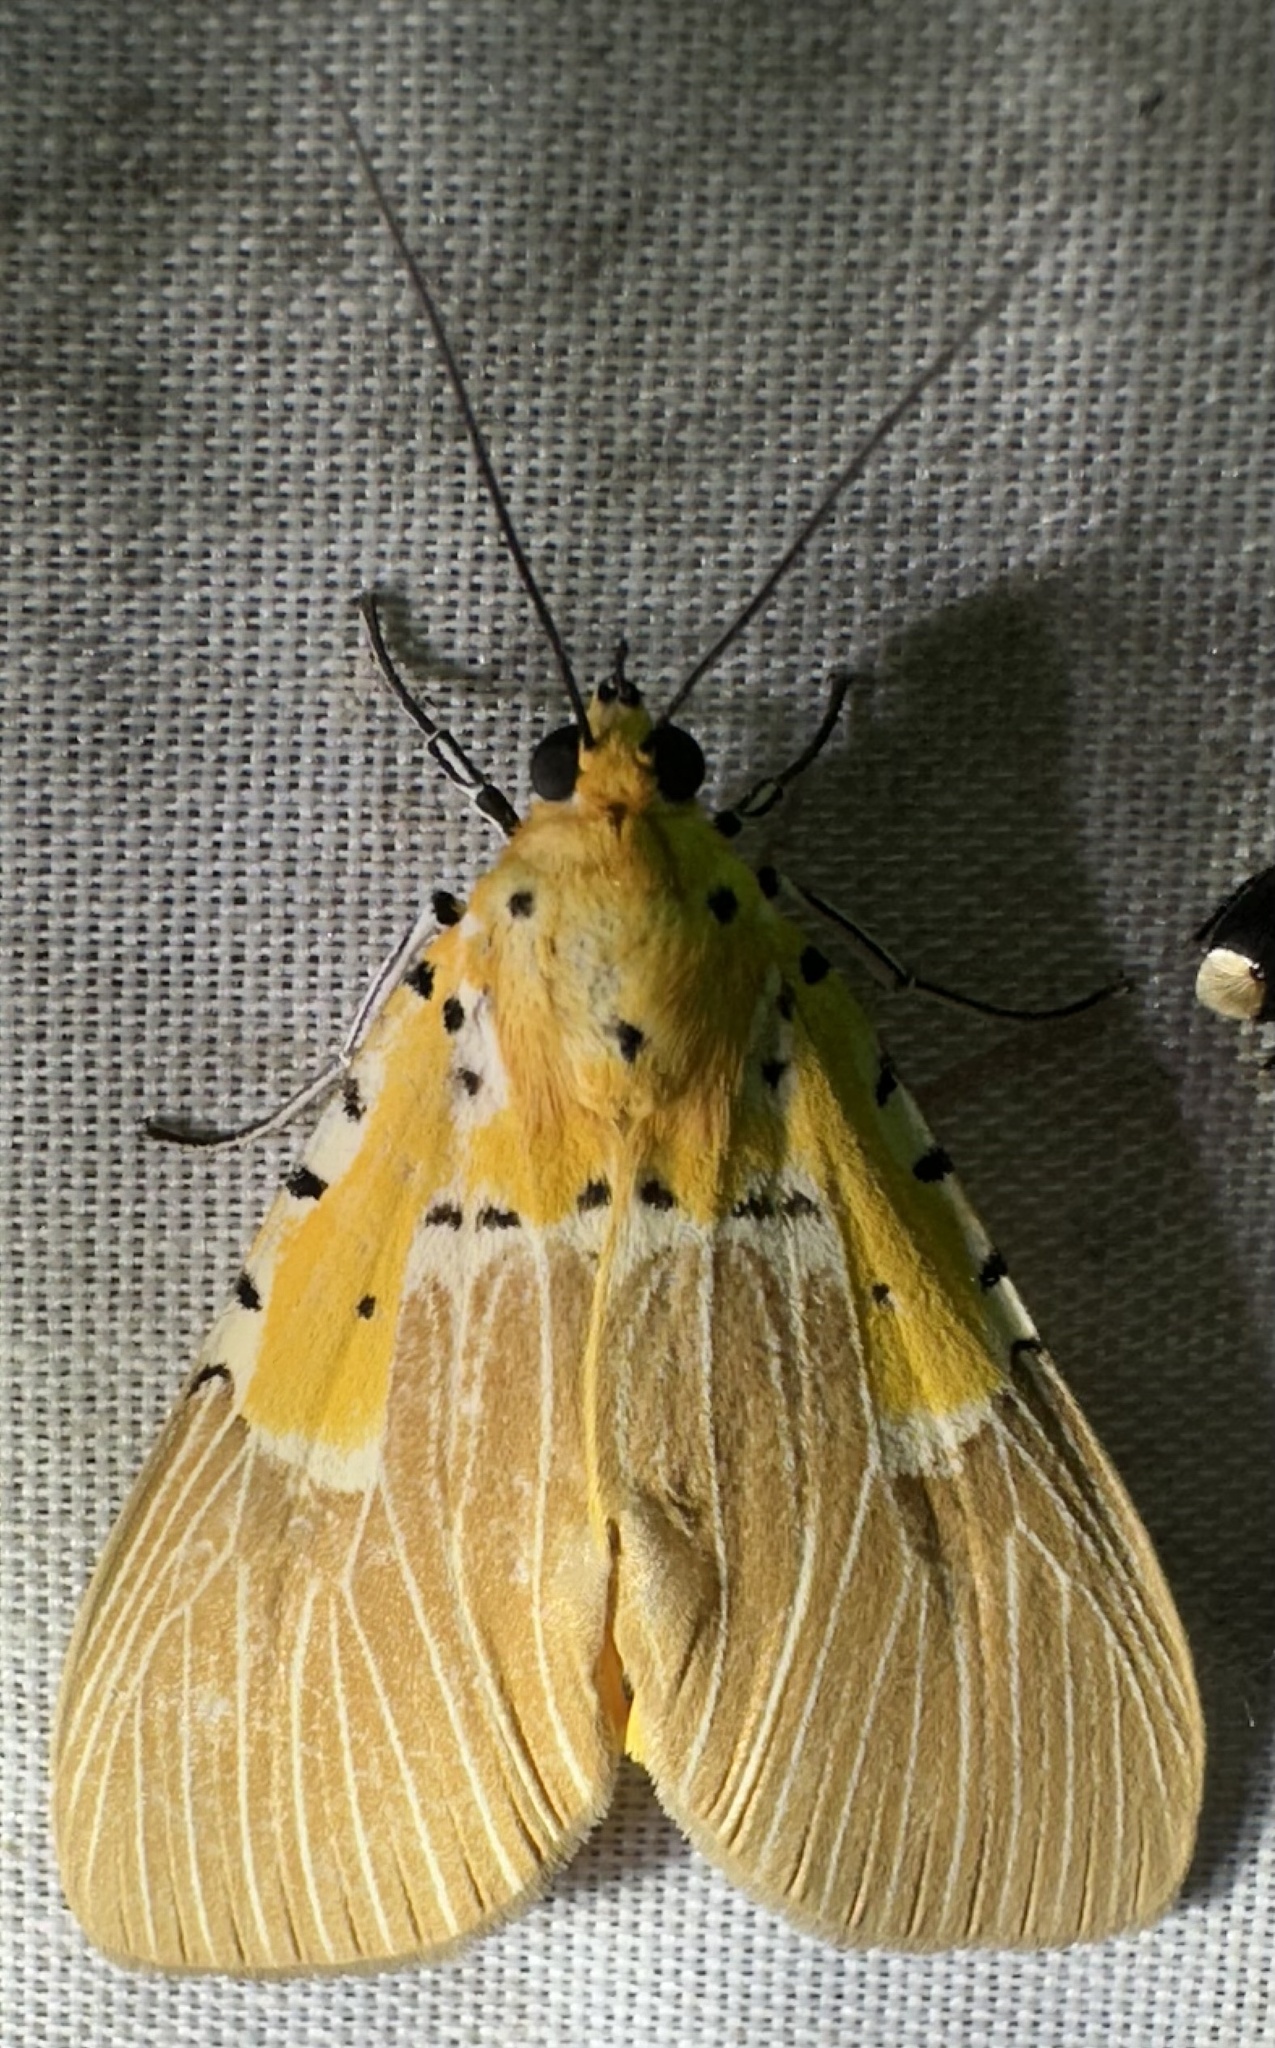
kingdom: Animalia
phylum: Arthropoda
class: Insecta
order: Lepidoptera
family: Erebidae
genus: Asota
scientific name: Asota speciosa
